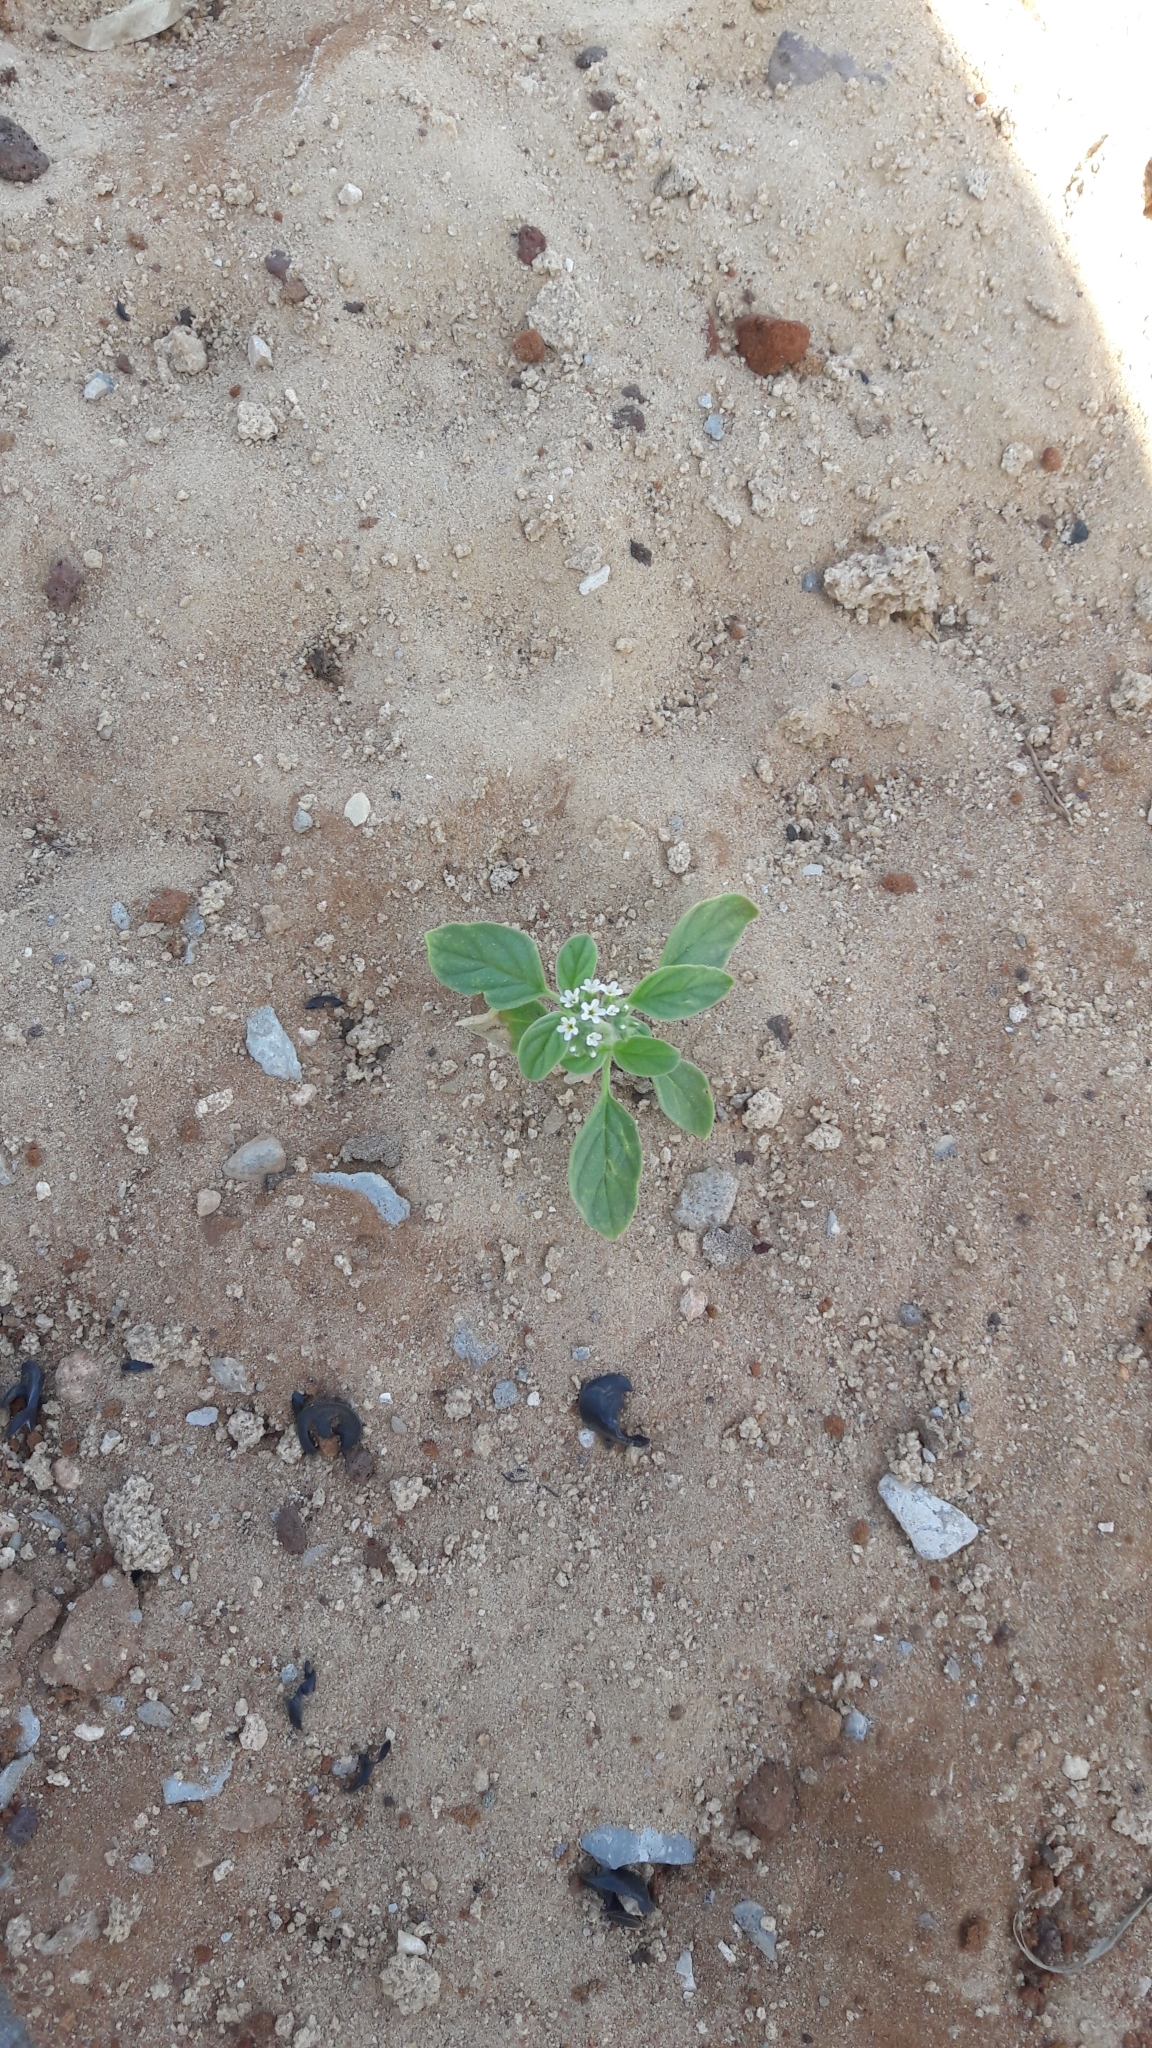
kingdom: Plantae
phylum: Tracheophyta
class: Magnoliopsida
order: Boraginales
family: Heliotropiaceae
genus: Heliotropium
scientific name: Heliotropium europaeum
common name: European heliotrope
